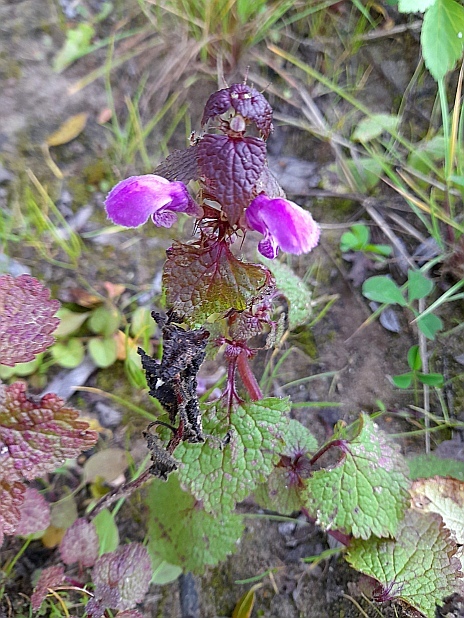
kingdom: Plantae
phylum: Tracheophyta
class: Magnoliopsida
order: Lamiales
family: Lamiaceae
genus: Lamium
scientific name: Lamium maculatum
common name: Spotted dead-nettle
